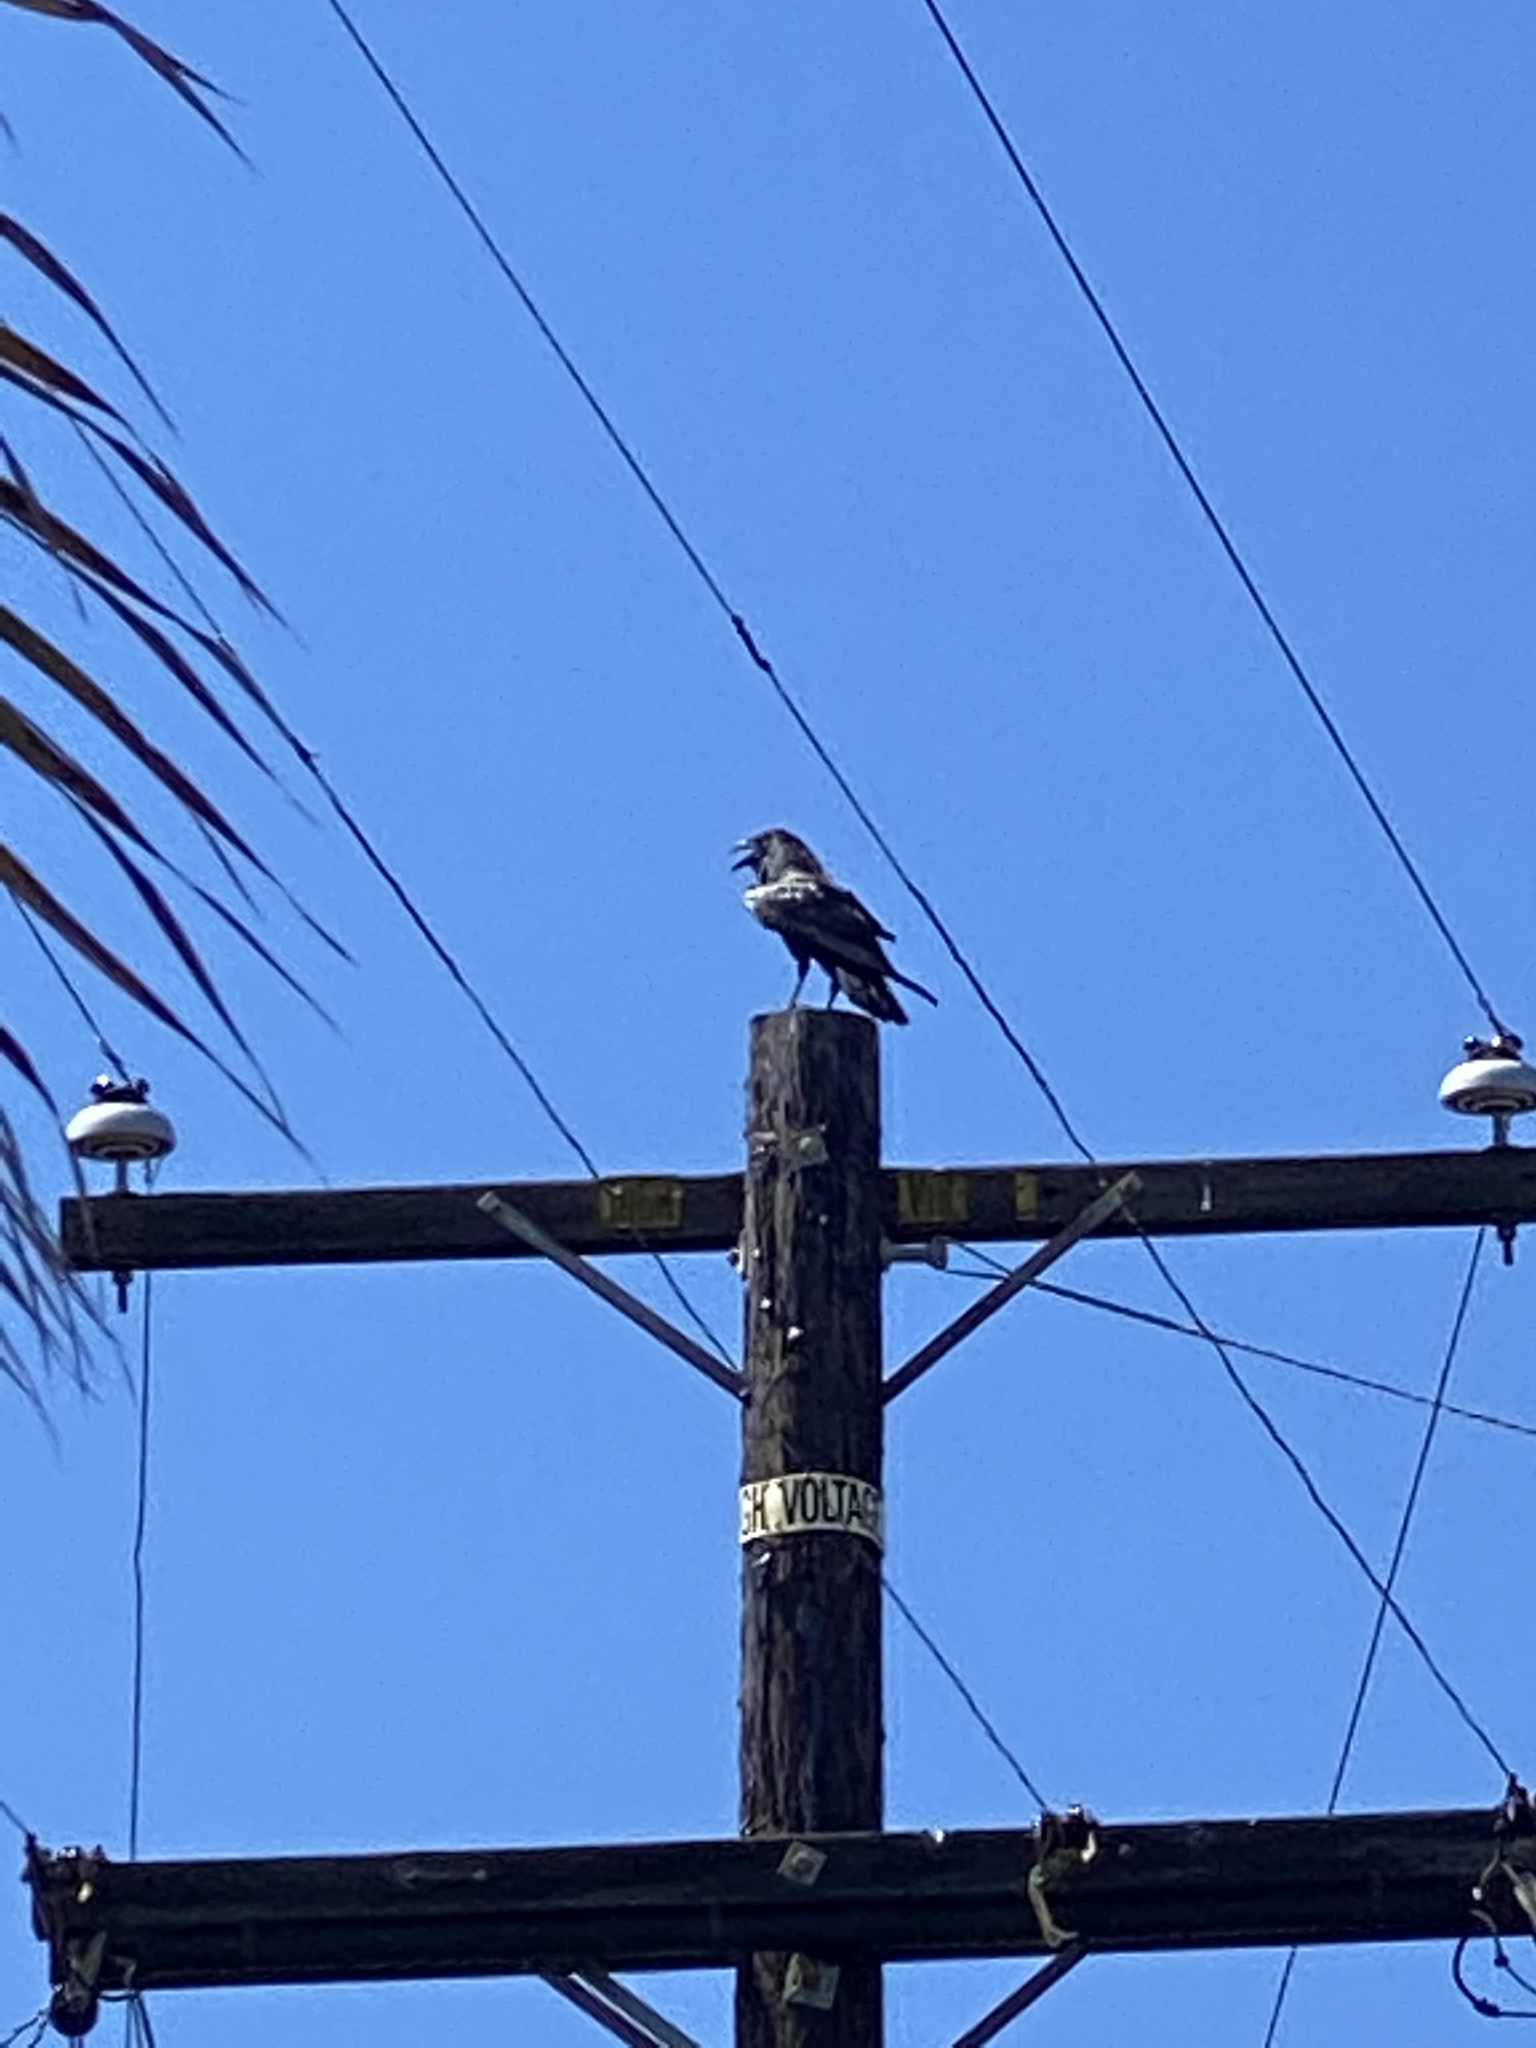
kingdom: Animalia
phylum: Chordata
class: Aves
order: Passeriformes
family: Corvidae
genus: Corvus
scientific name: Corvus corax
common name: Common raven
